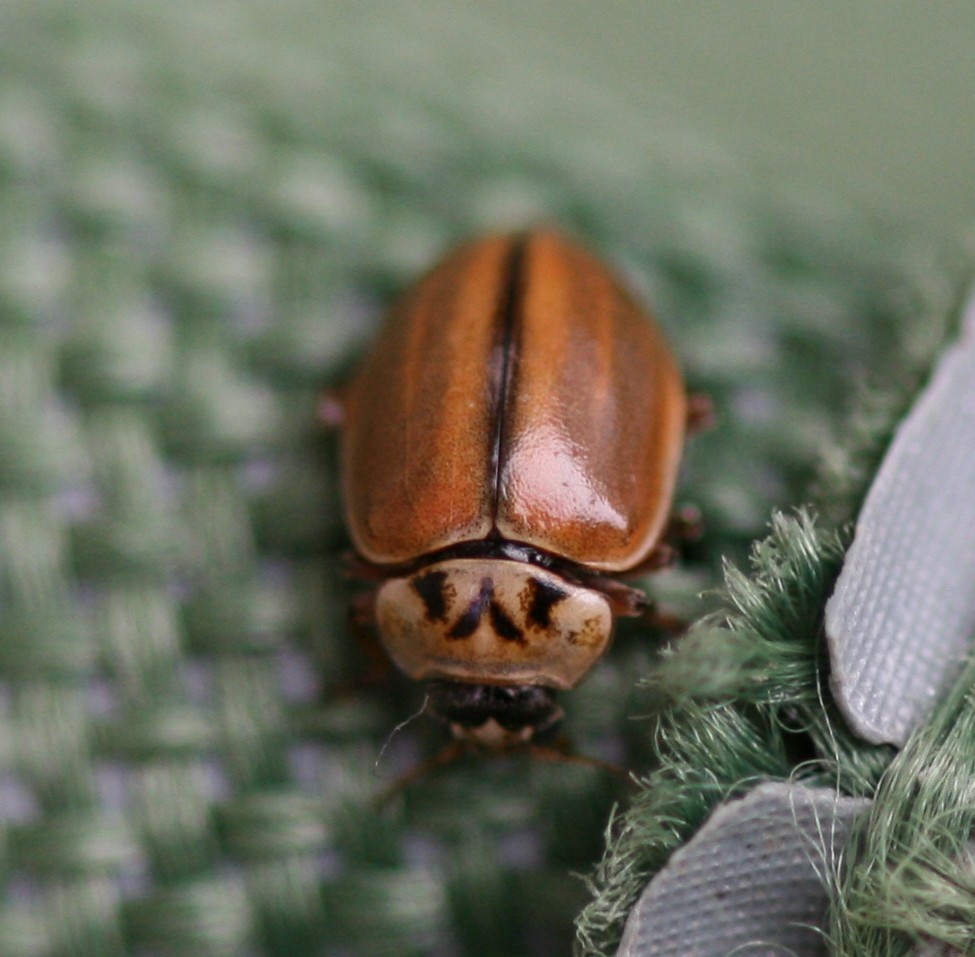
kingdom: Animalia
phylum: Arthropoda
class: Insecta
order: Coleoptera
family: Coccinellidae
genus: Aphidecta
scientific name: Aphidecta obliterata
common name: Larch ladybird
